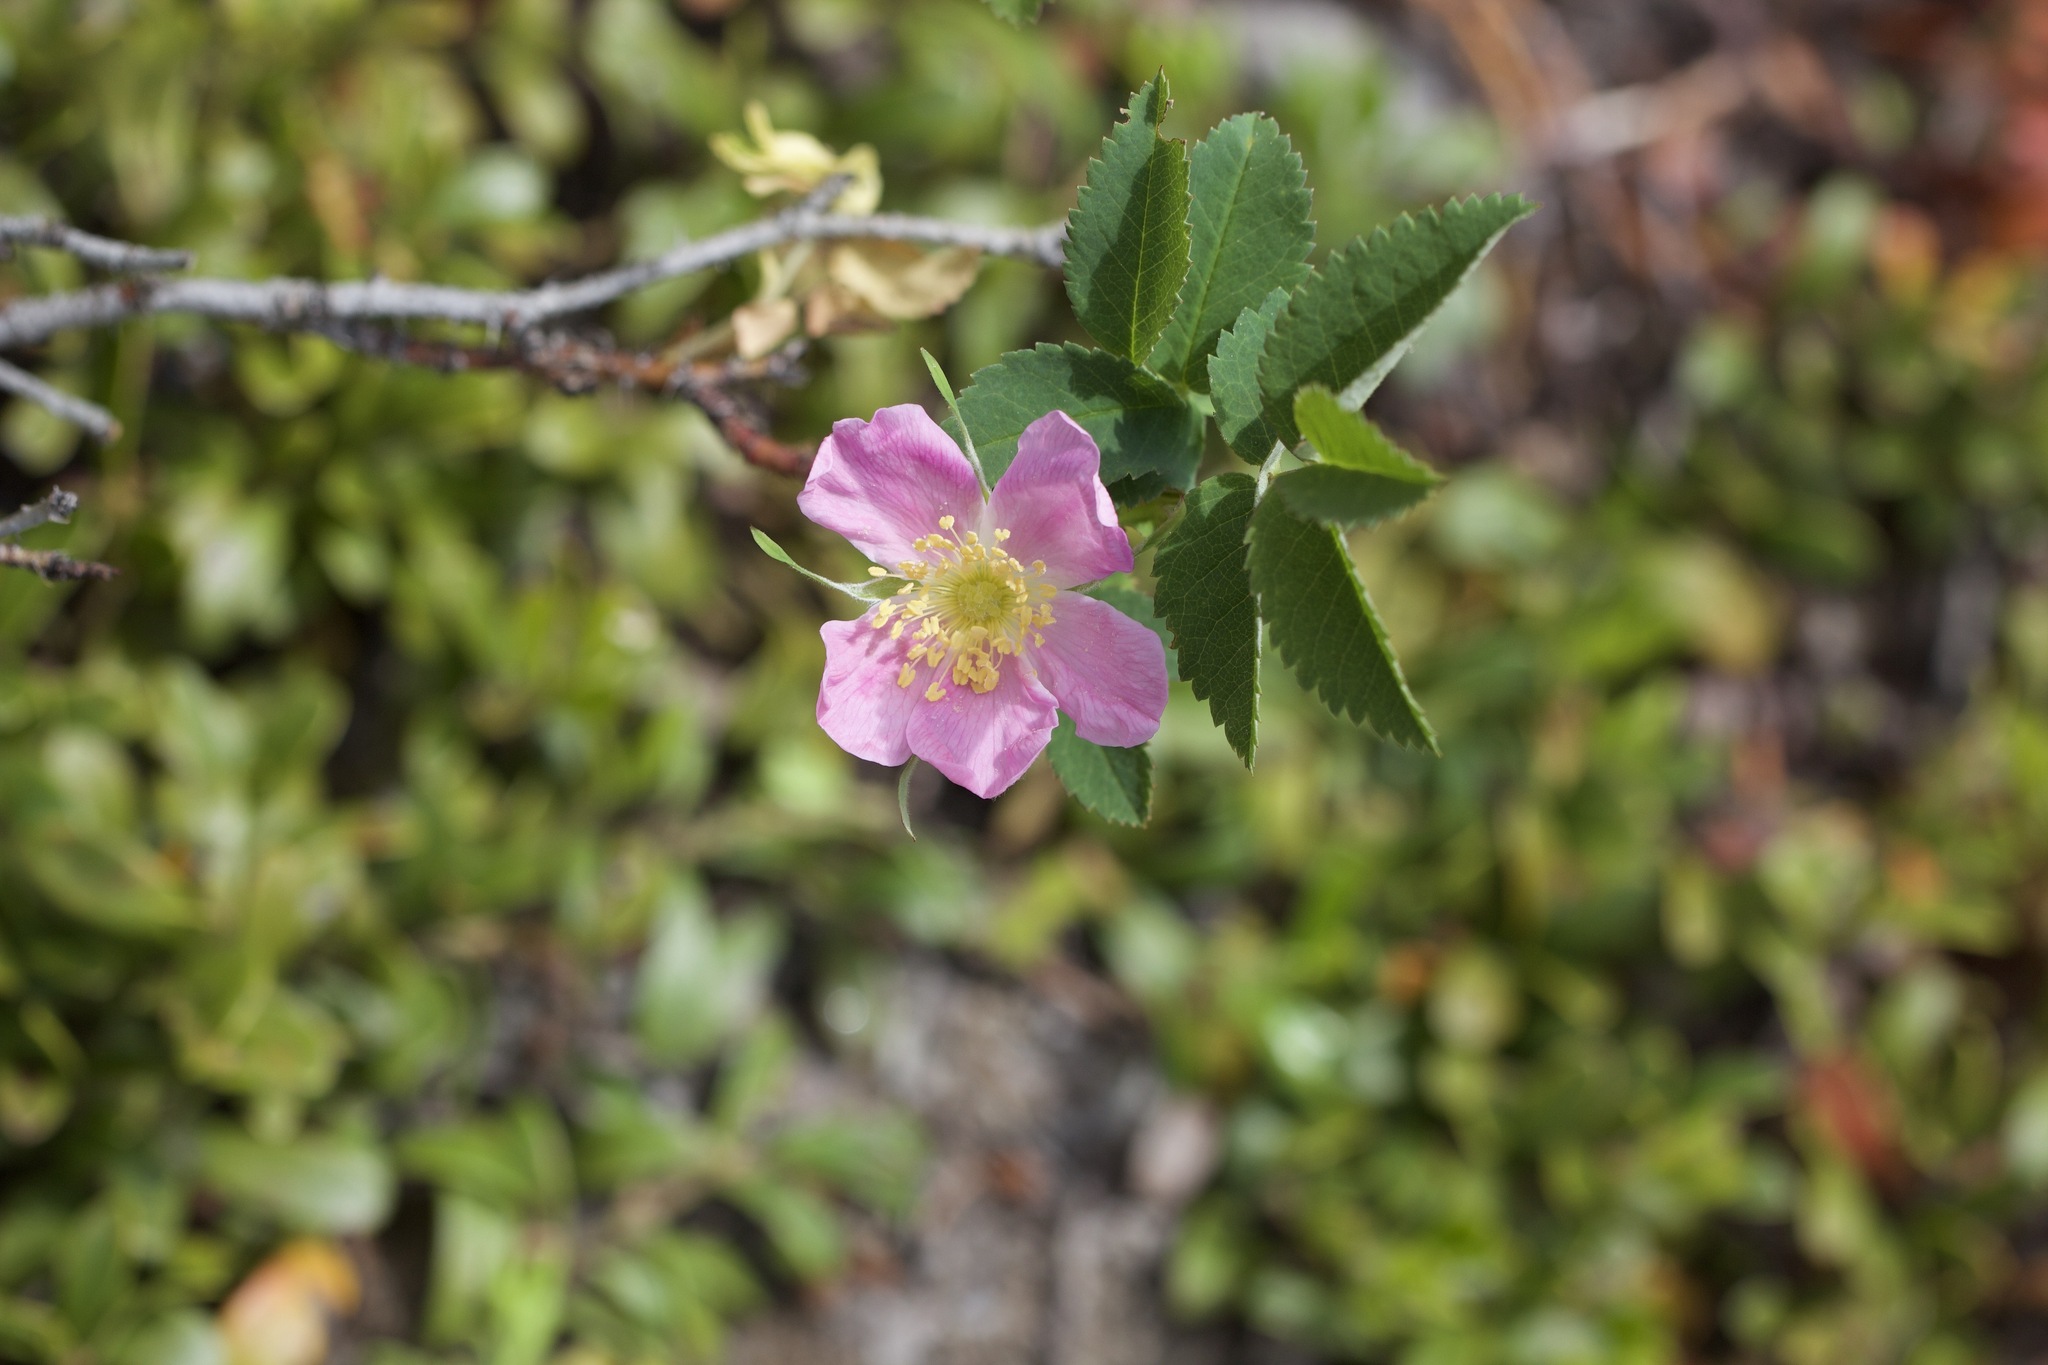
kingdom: Plantae
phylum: Tracheophyta
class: Magnoliopsida
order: Rosales
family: Rosaceae
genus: Rosa
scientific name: Rosa acicularis
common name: Prickly rose
